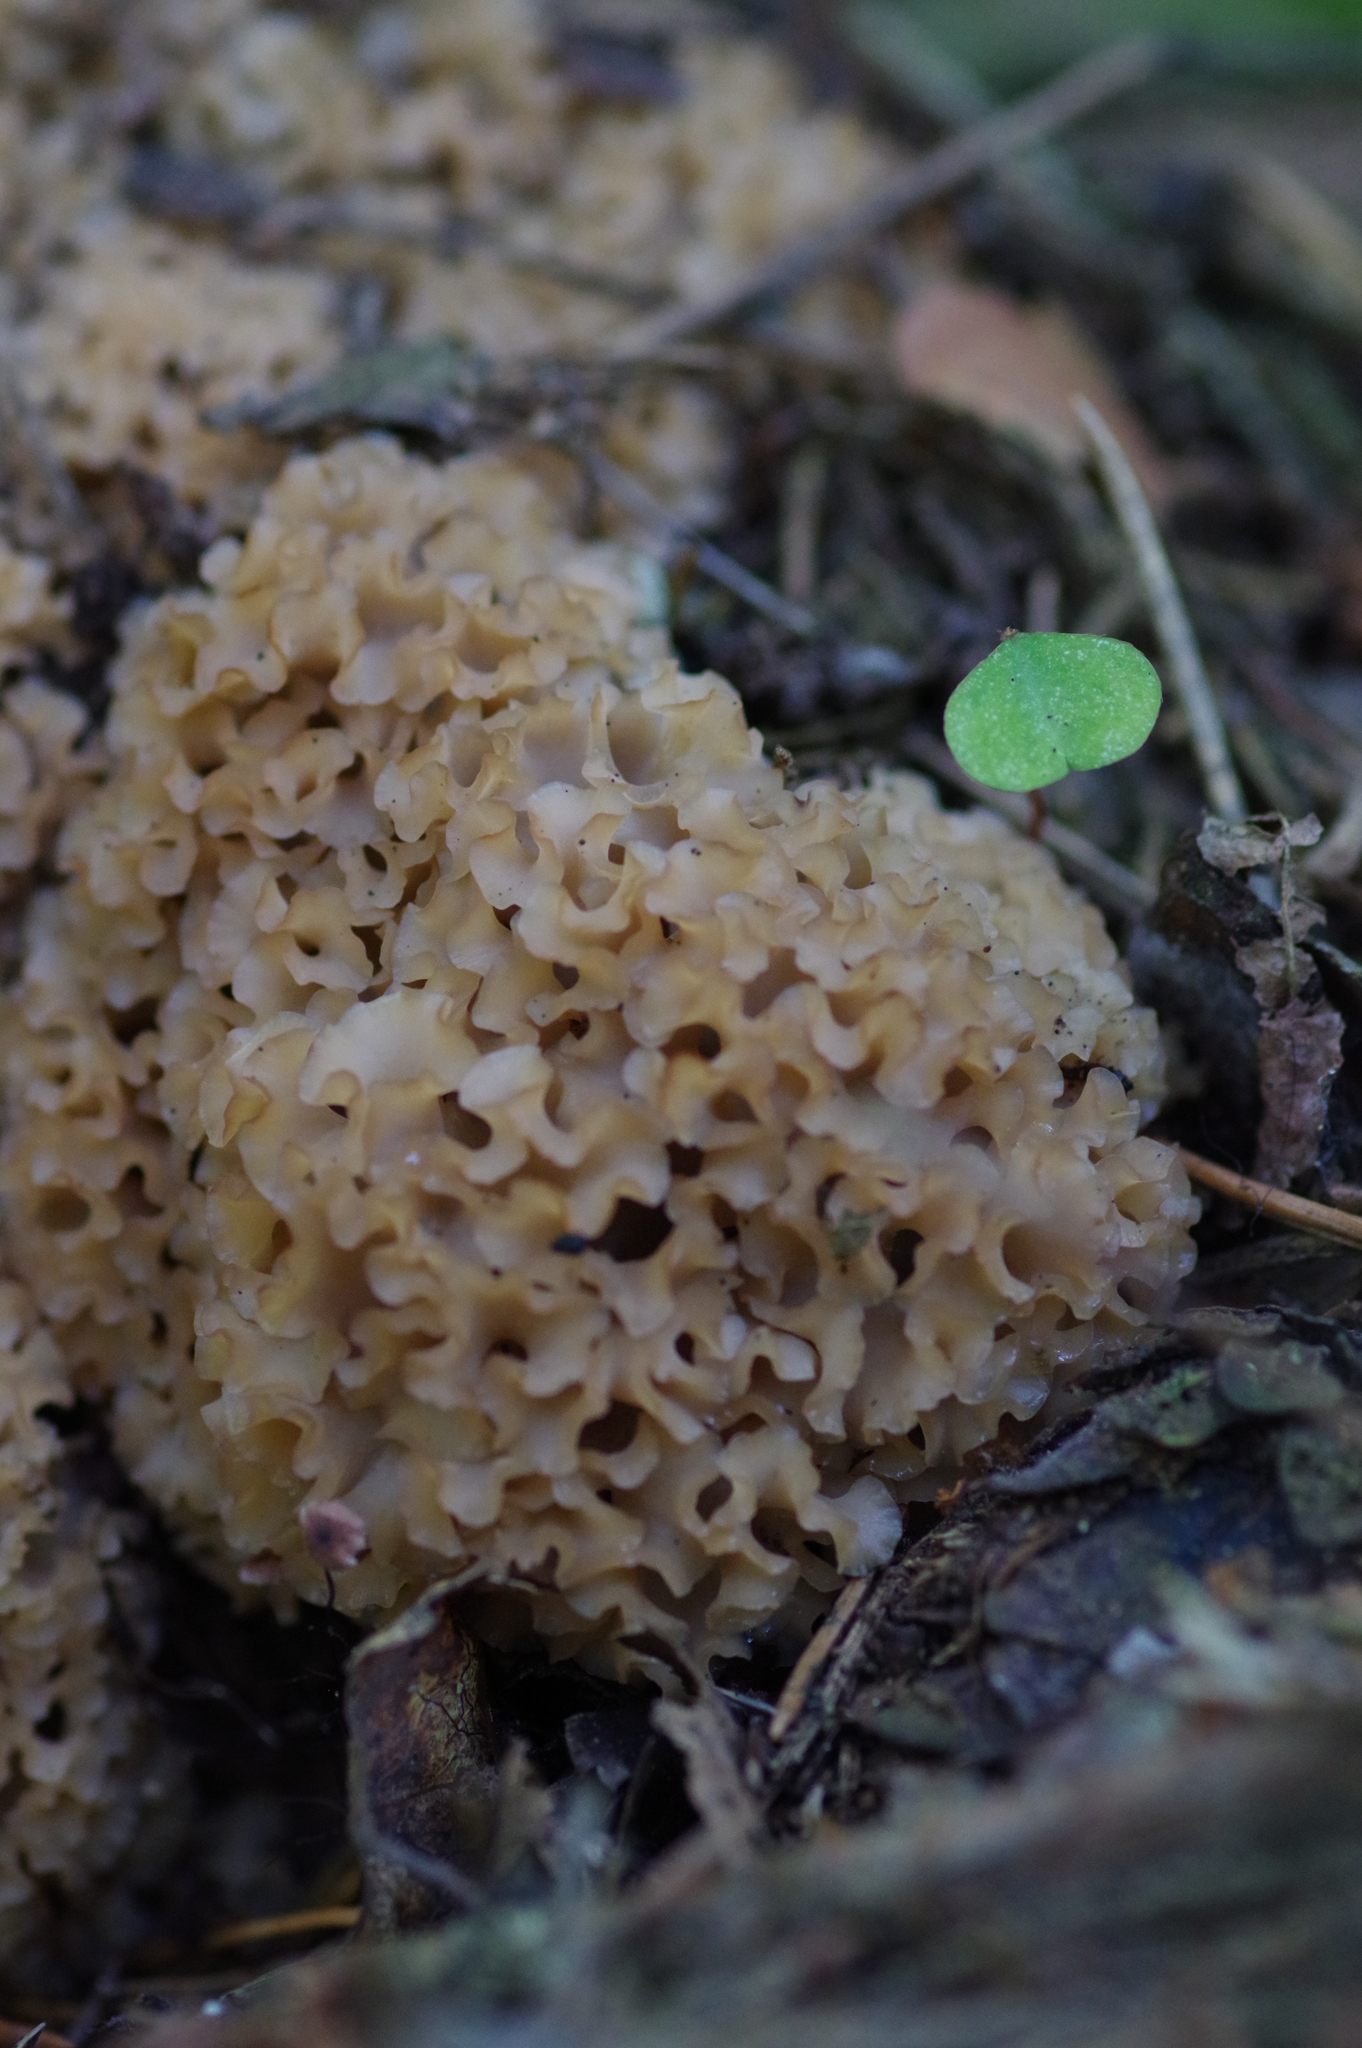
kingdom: Fungi
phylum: Basidiomycota
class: Agaricomycetes
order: Polyporales
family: Sparassidaceae
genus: Sparassis
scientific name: Sparassis crispa
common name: Brain fungus
